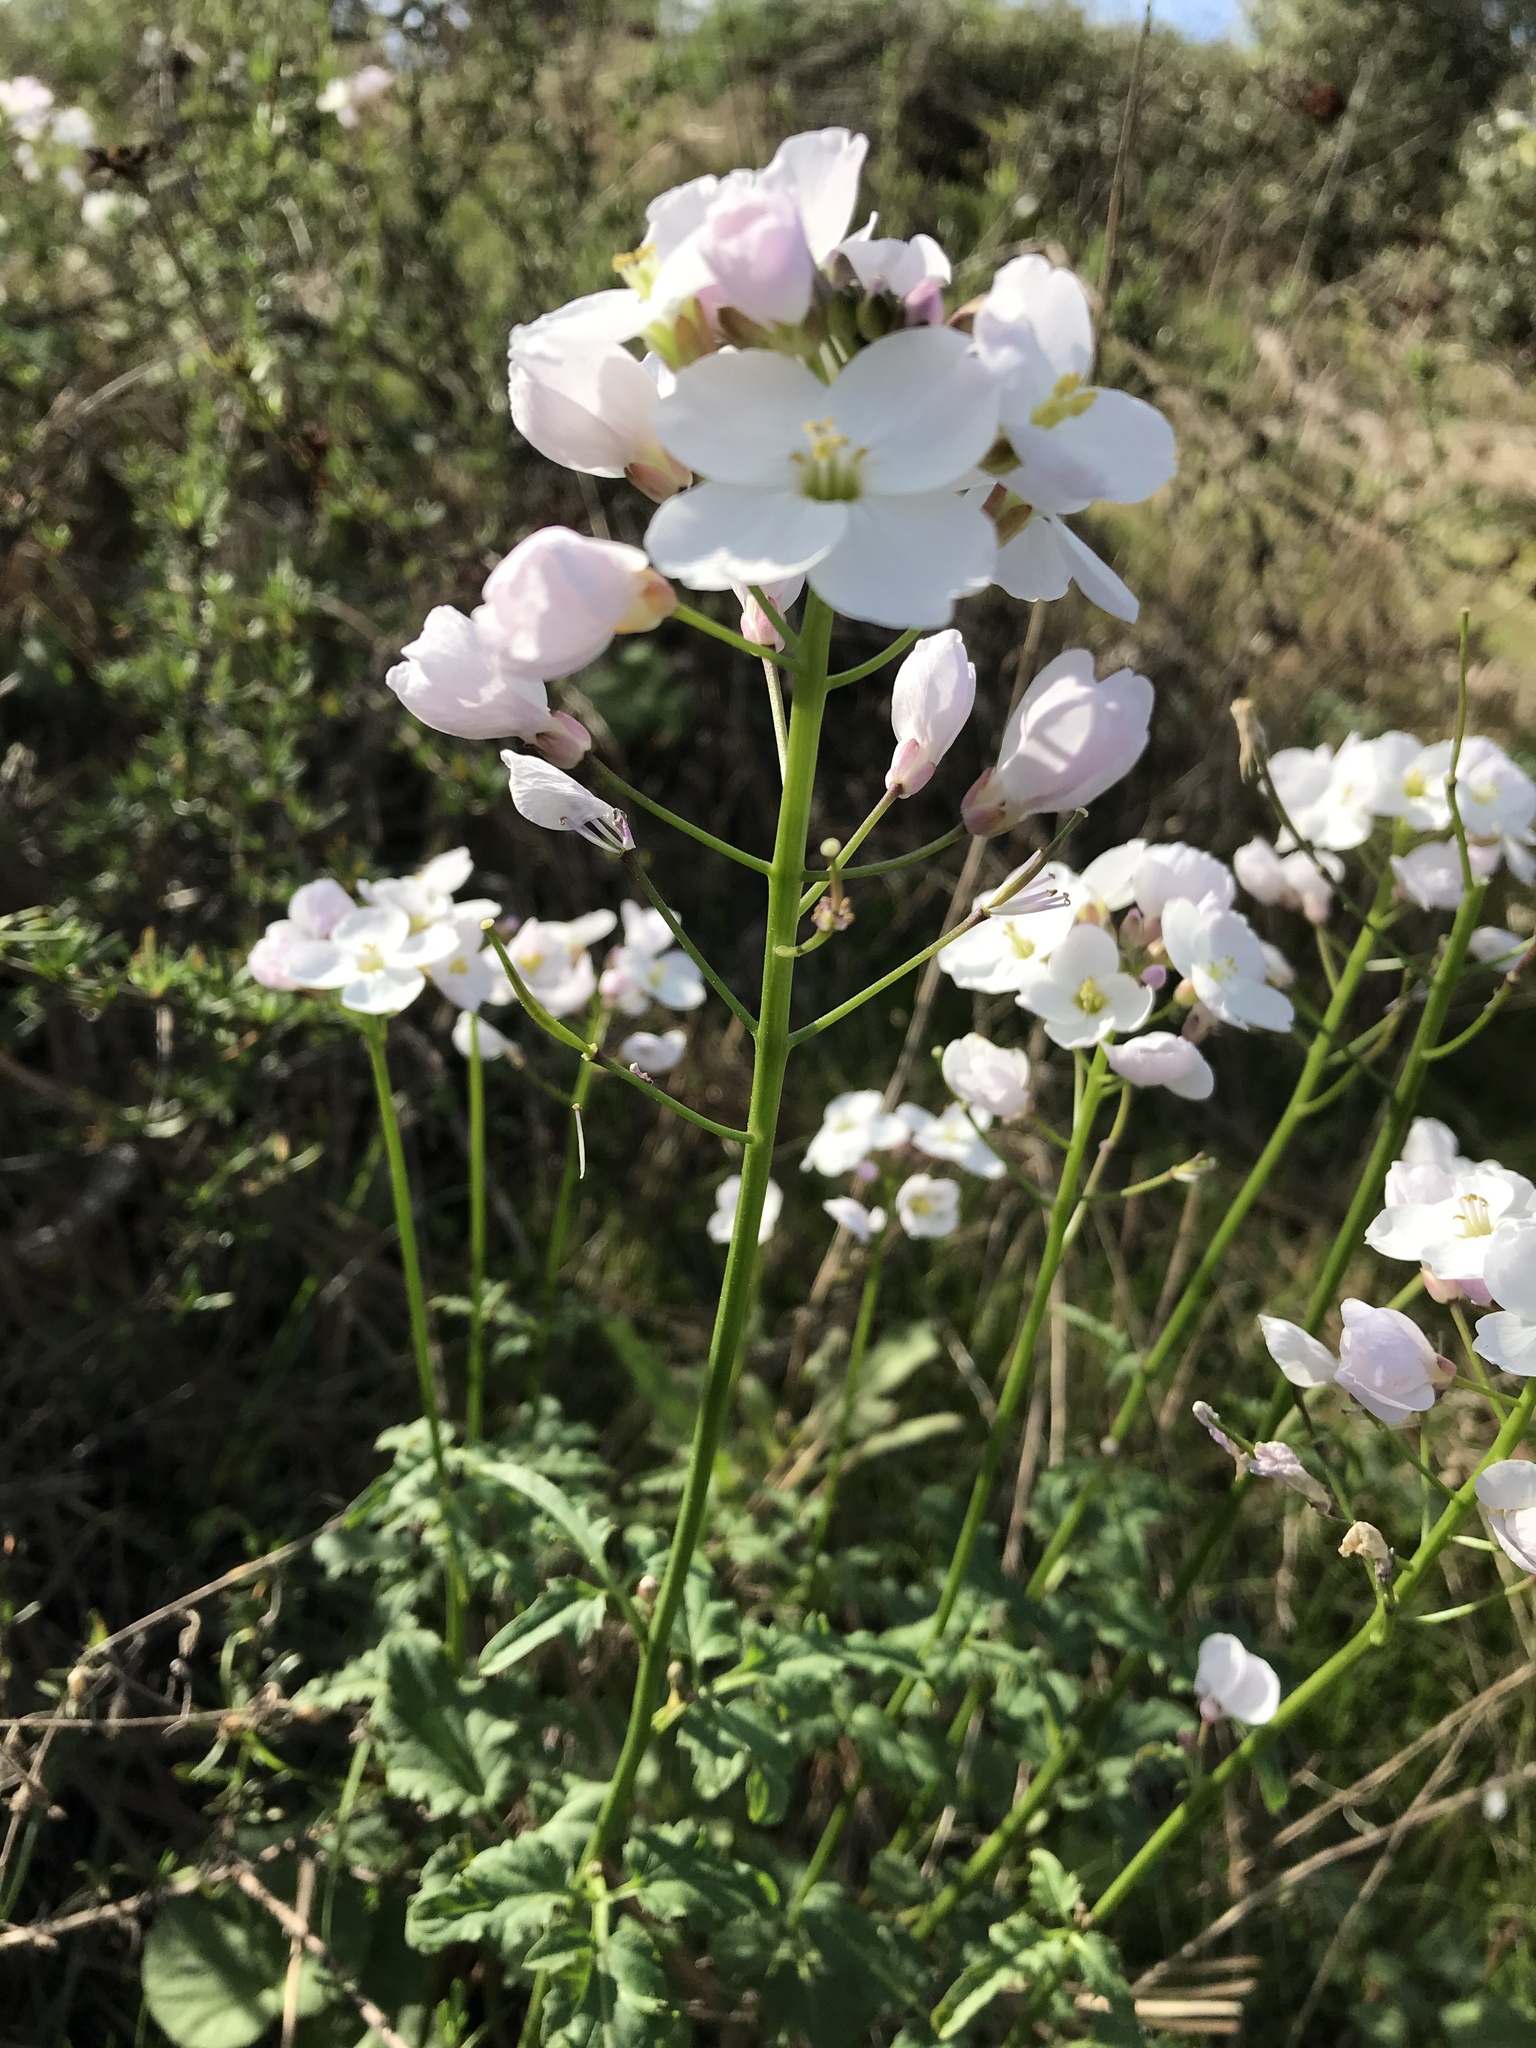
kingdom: Plantae
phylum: Tracheophyta
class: Magnoliopsida
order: Brassicales
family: Brassicaceae
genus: Cardamine
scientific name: Cardamine californica
